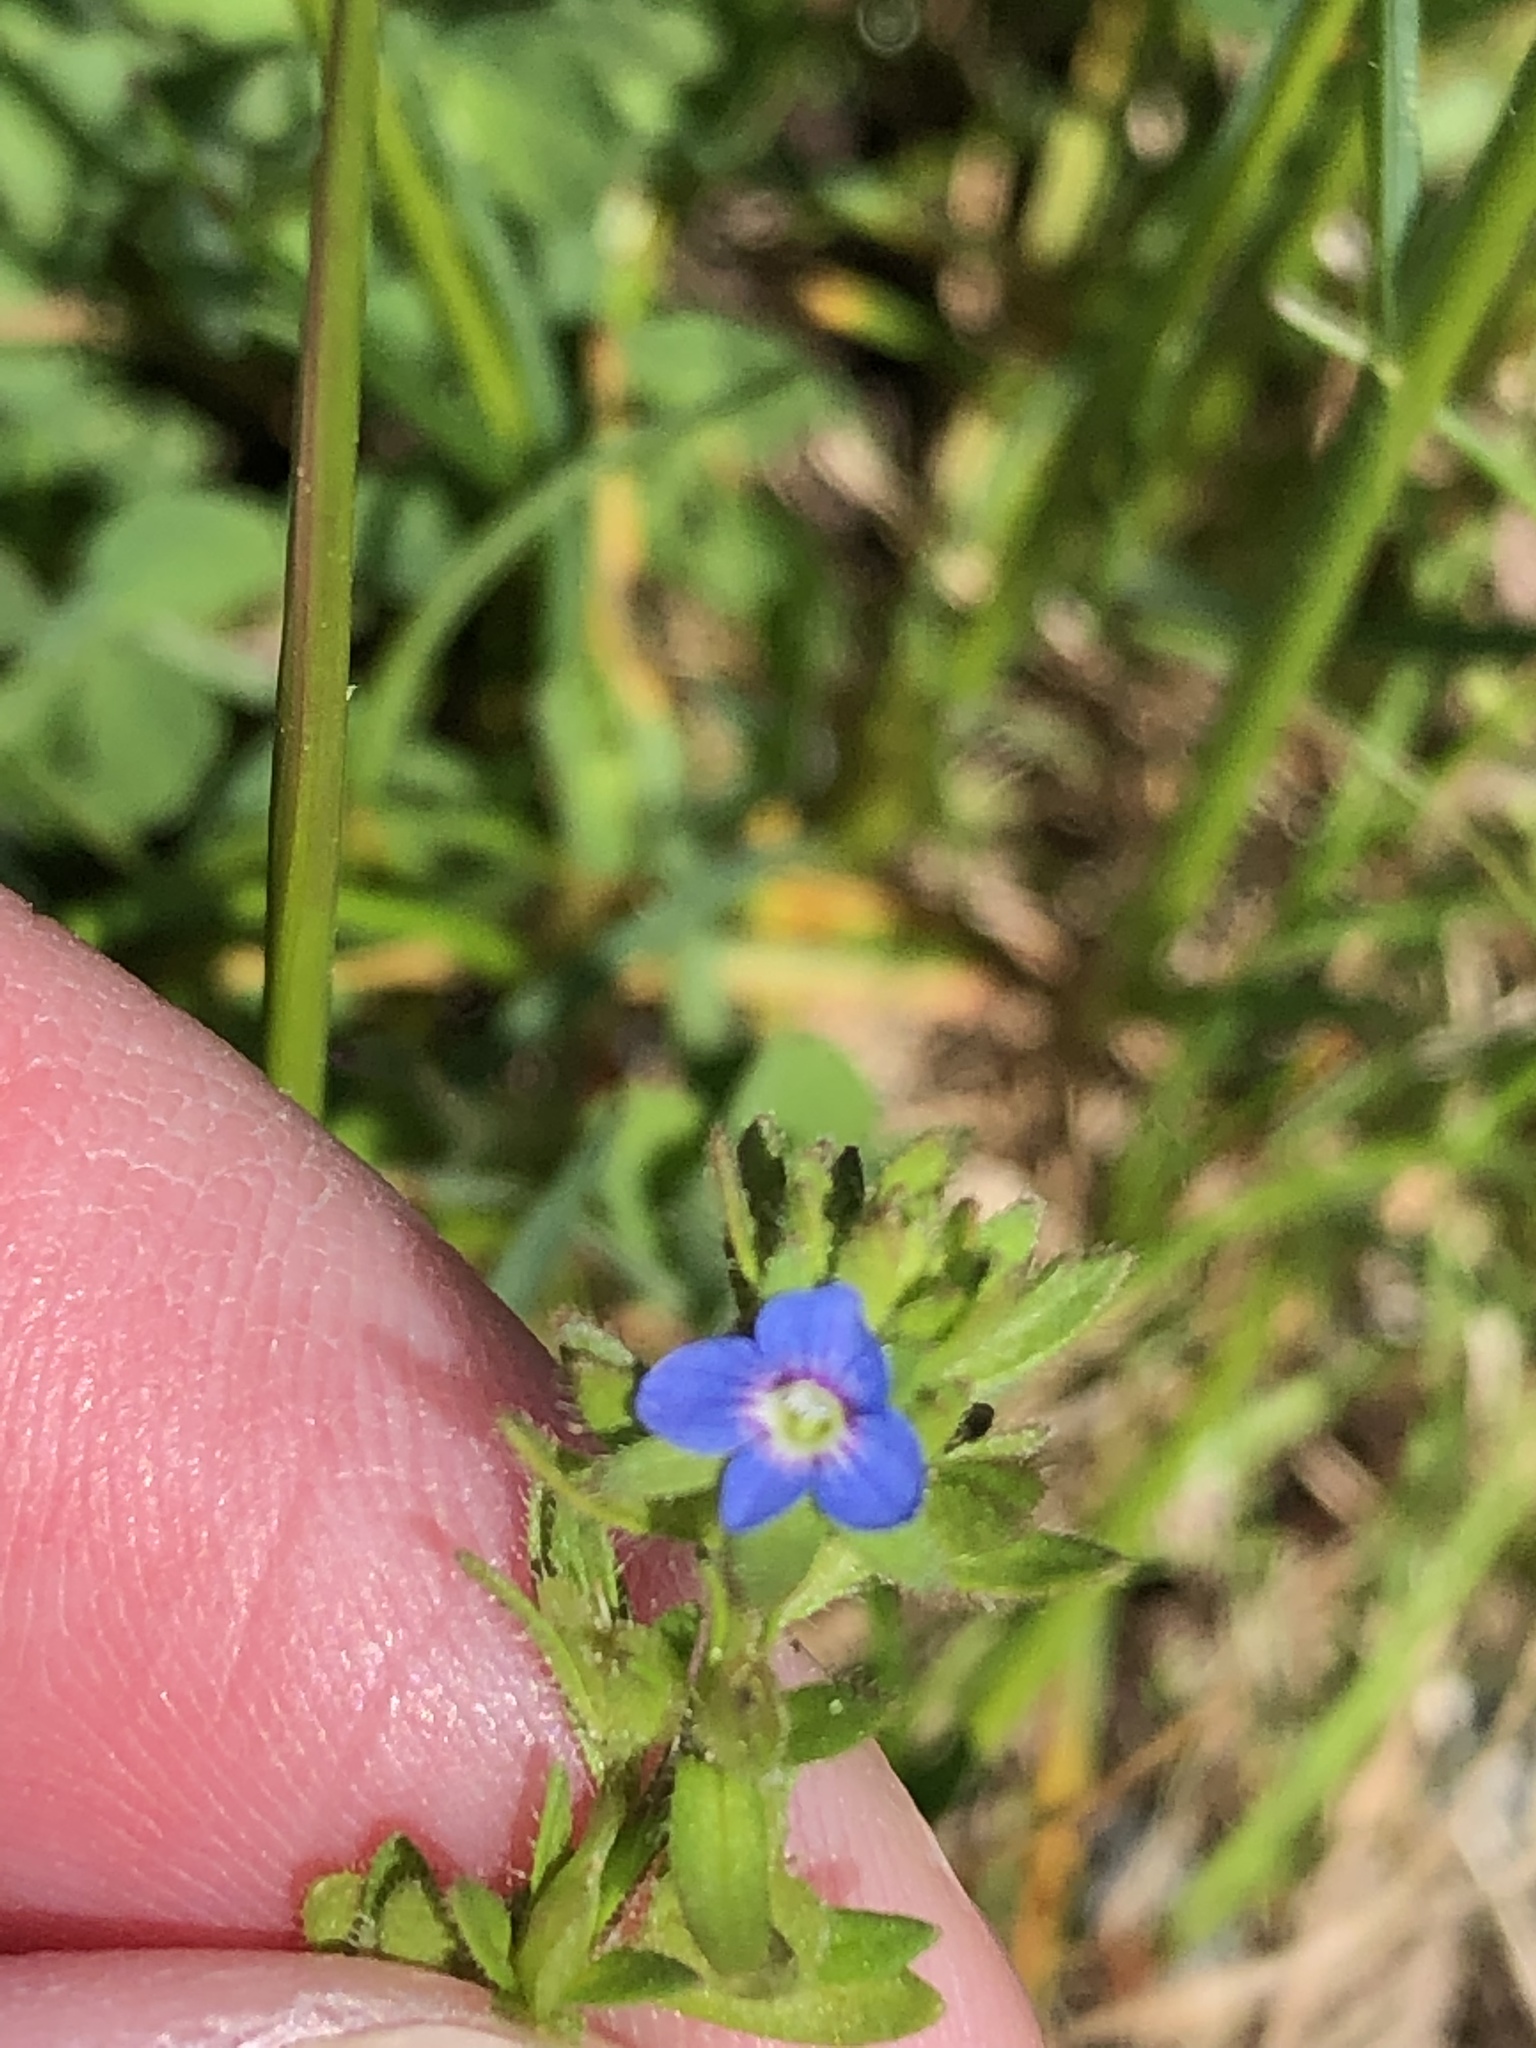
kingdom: Plantae
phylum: Tracheophyta
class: Magnoliopsida
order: Lamiales
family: Plantaginaceae
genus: Veronica
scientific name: Veronica arvensis
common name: Corn speedwell
